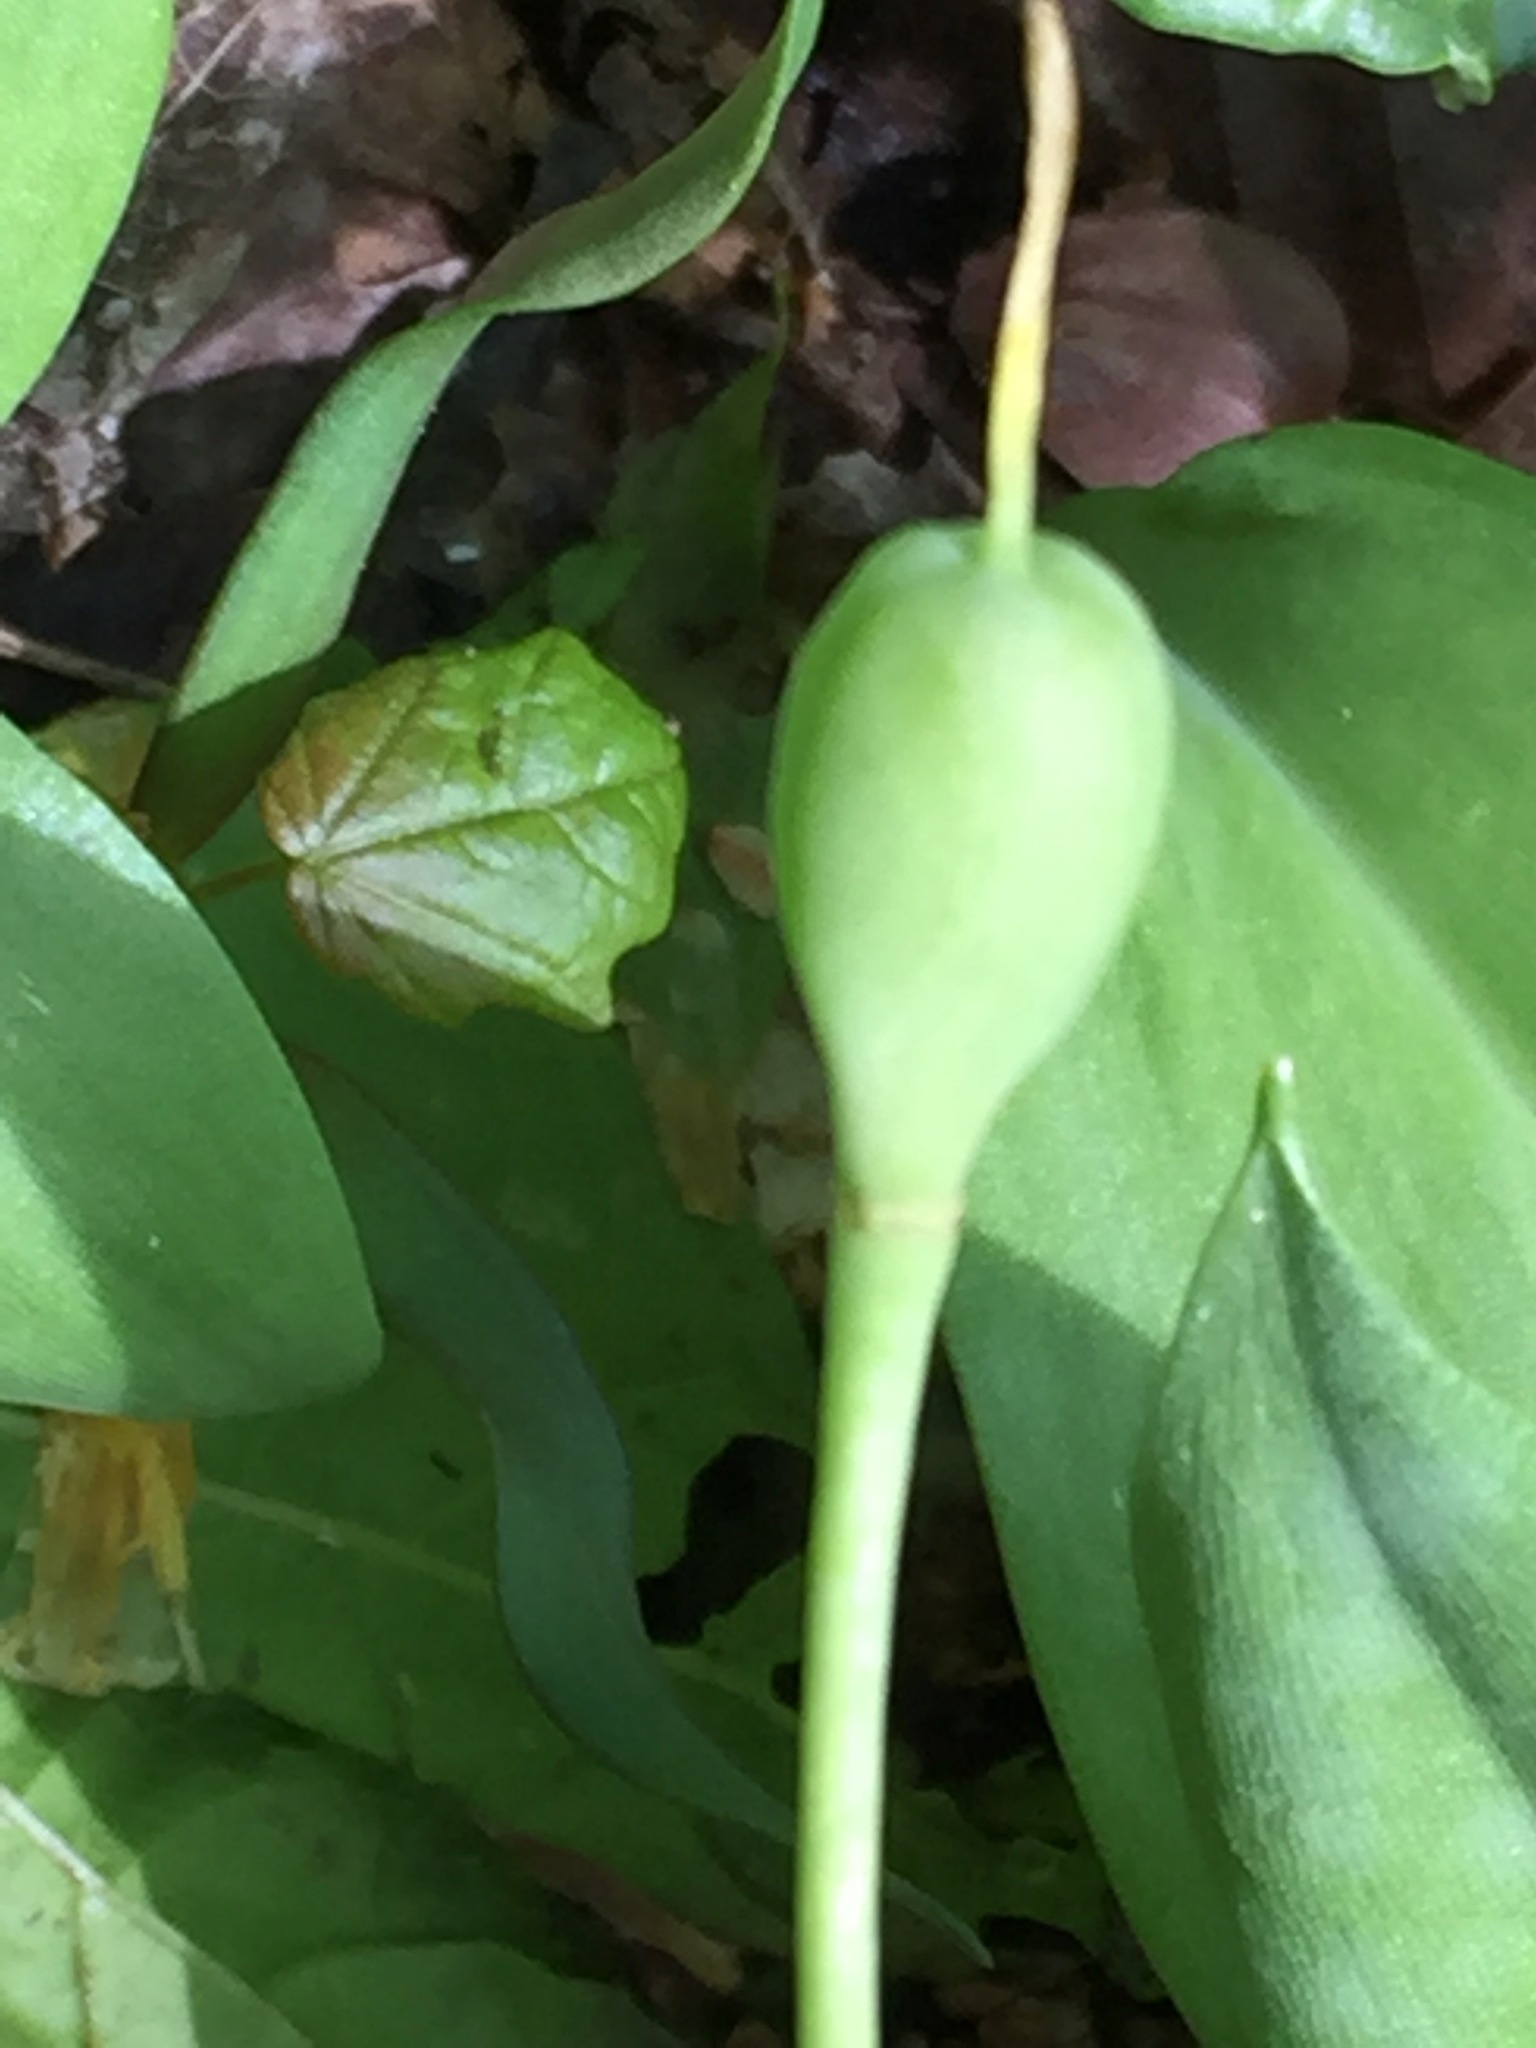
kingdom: Plantae
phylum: Tracheophyta
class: Liliopsida
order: Liliales
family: Liliaceae
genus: Erythronium
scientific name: Erythronium americanum
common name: Yellow adder's-tongue
